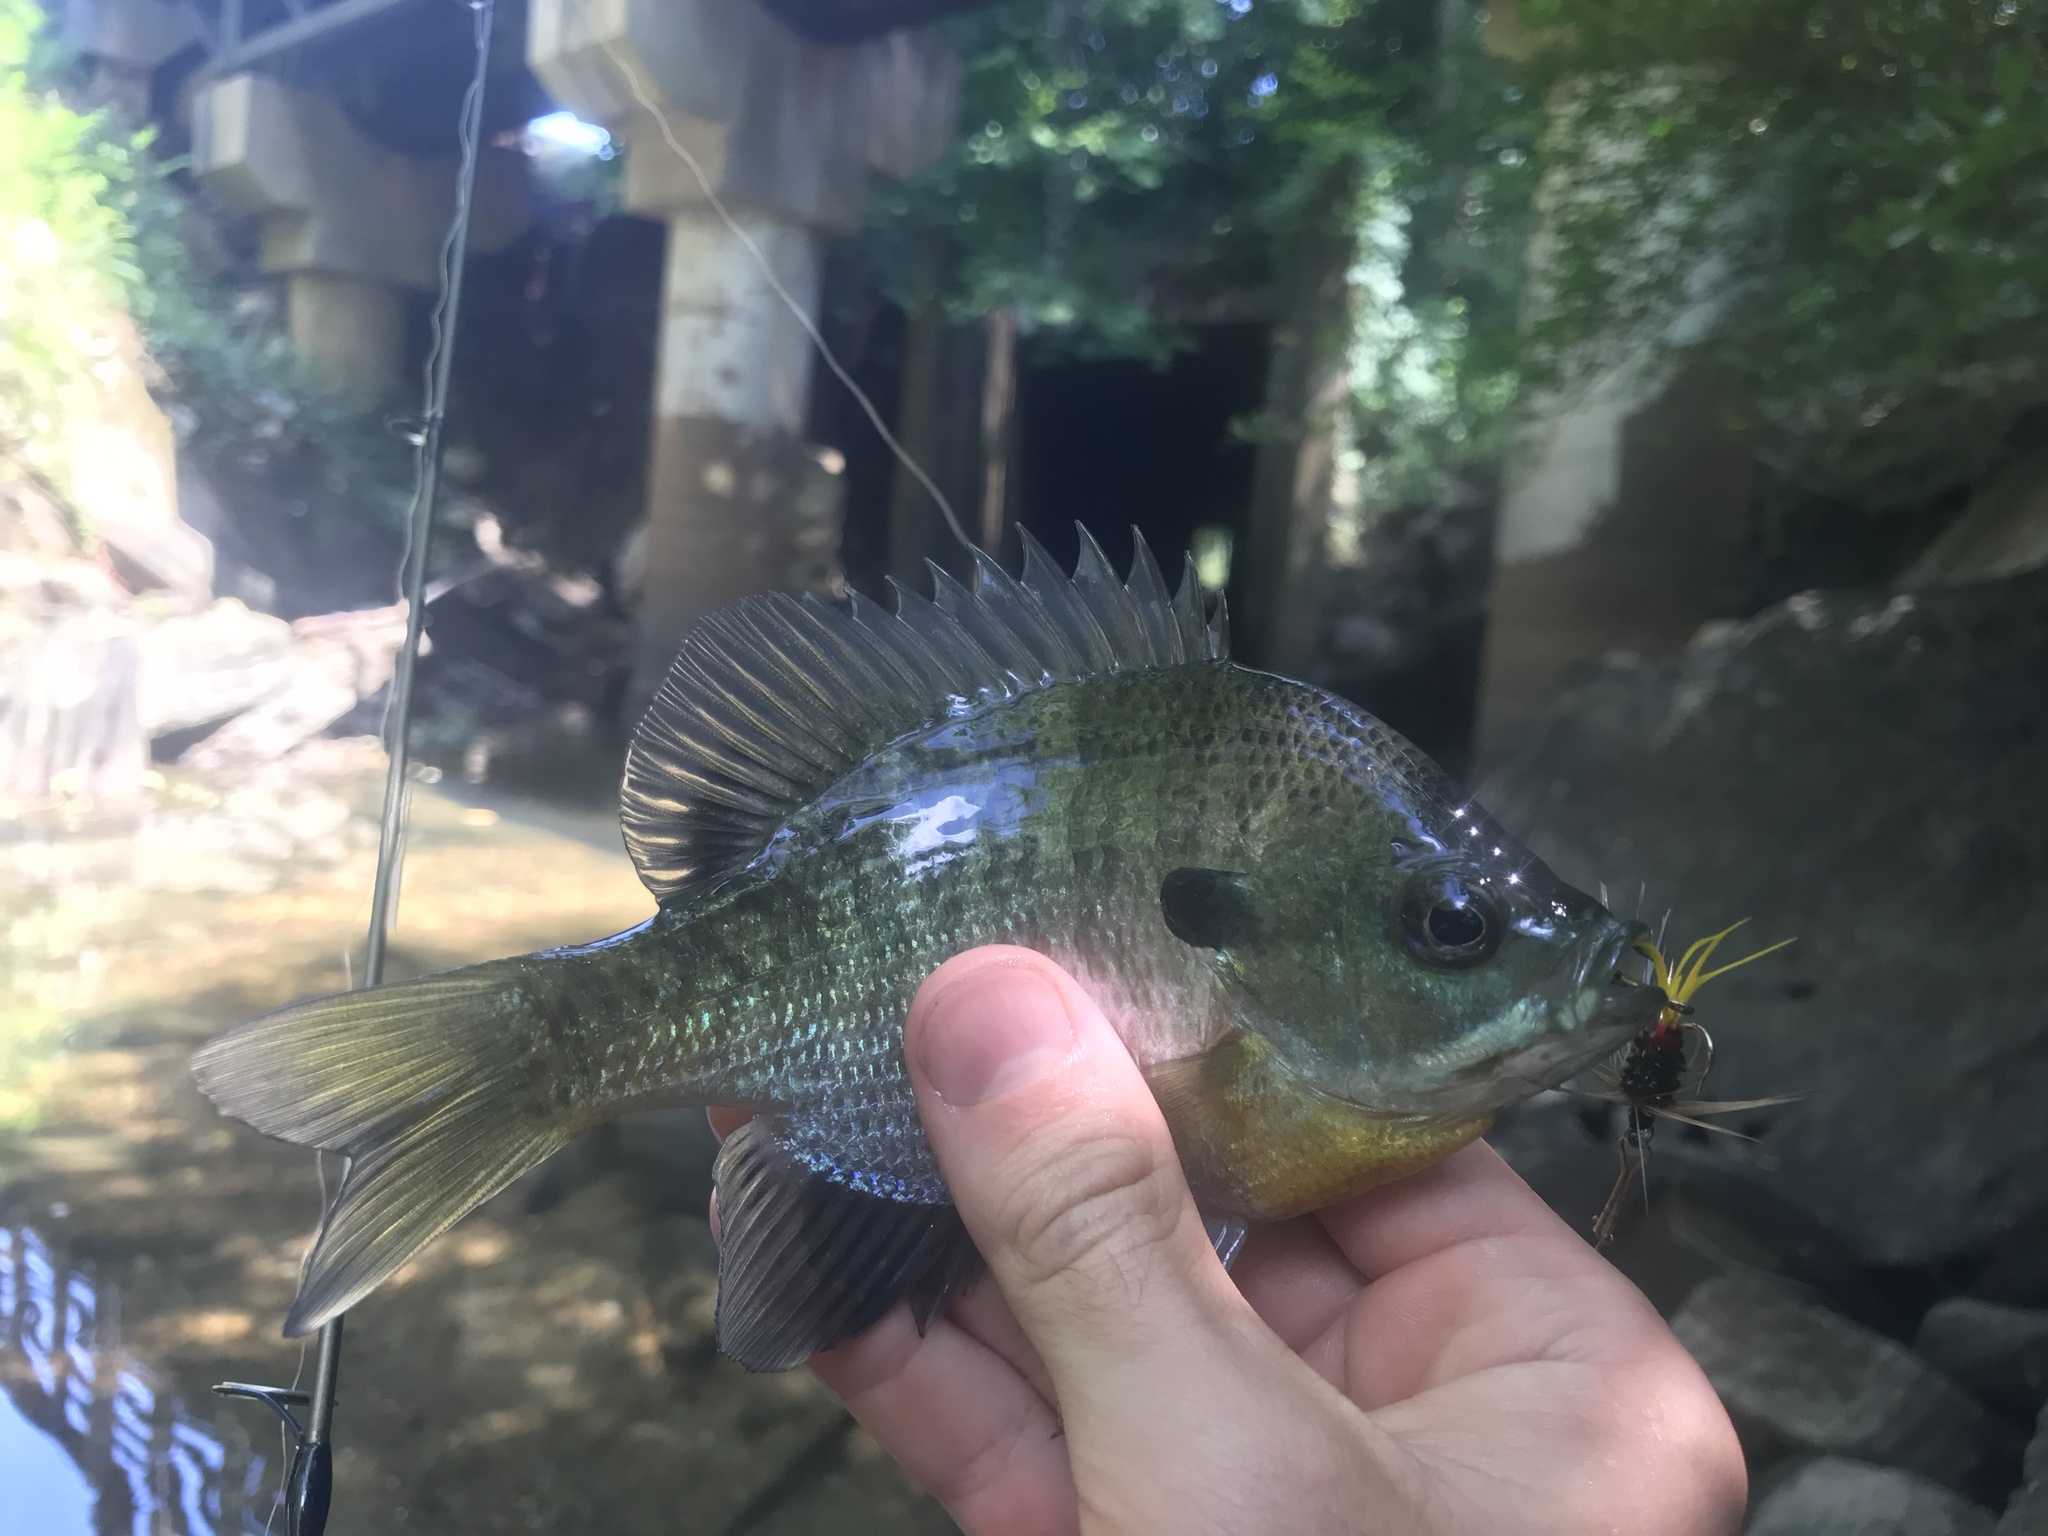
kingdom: Animalia
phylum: Chordata
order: Perciformes
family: Centrarchidae
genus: Lepomis
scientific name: Lepomis macrochirus
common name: Bluegill
